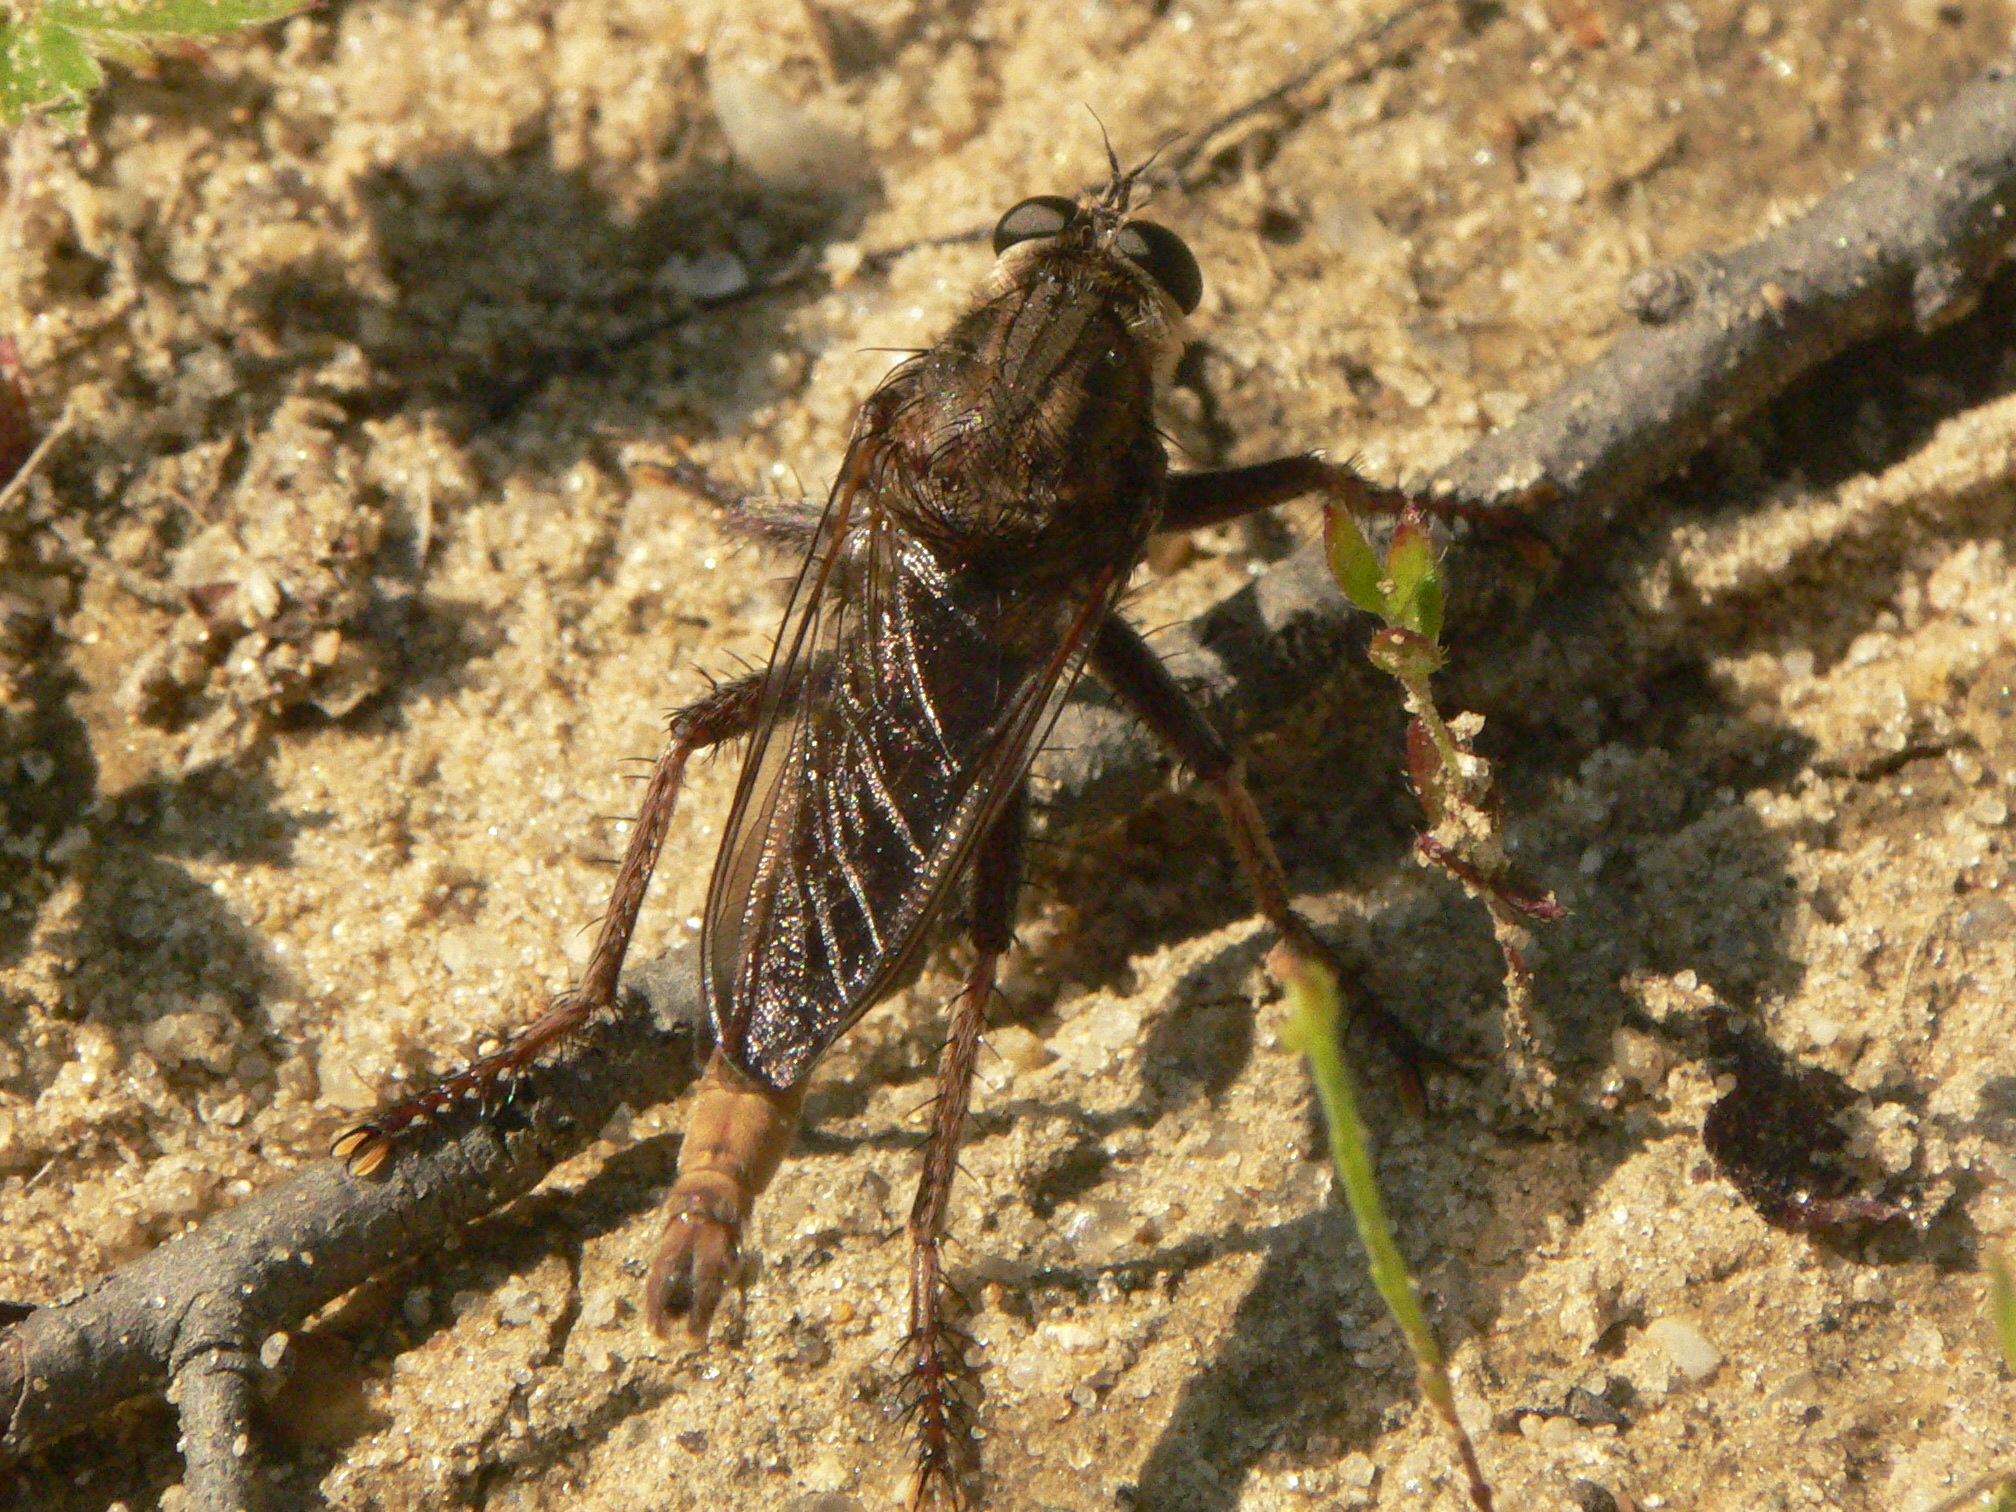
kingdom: Animalia
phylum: Arthropoda
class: Insecta
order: Diptera
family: Asilidae
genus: Proctacanthus
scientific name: Proctacanthus philadelphicus
